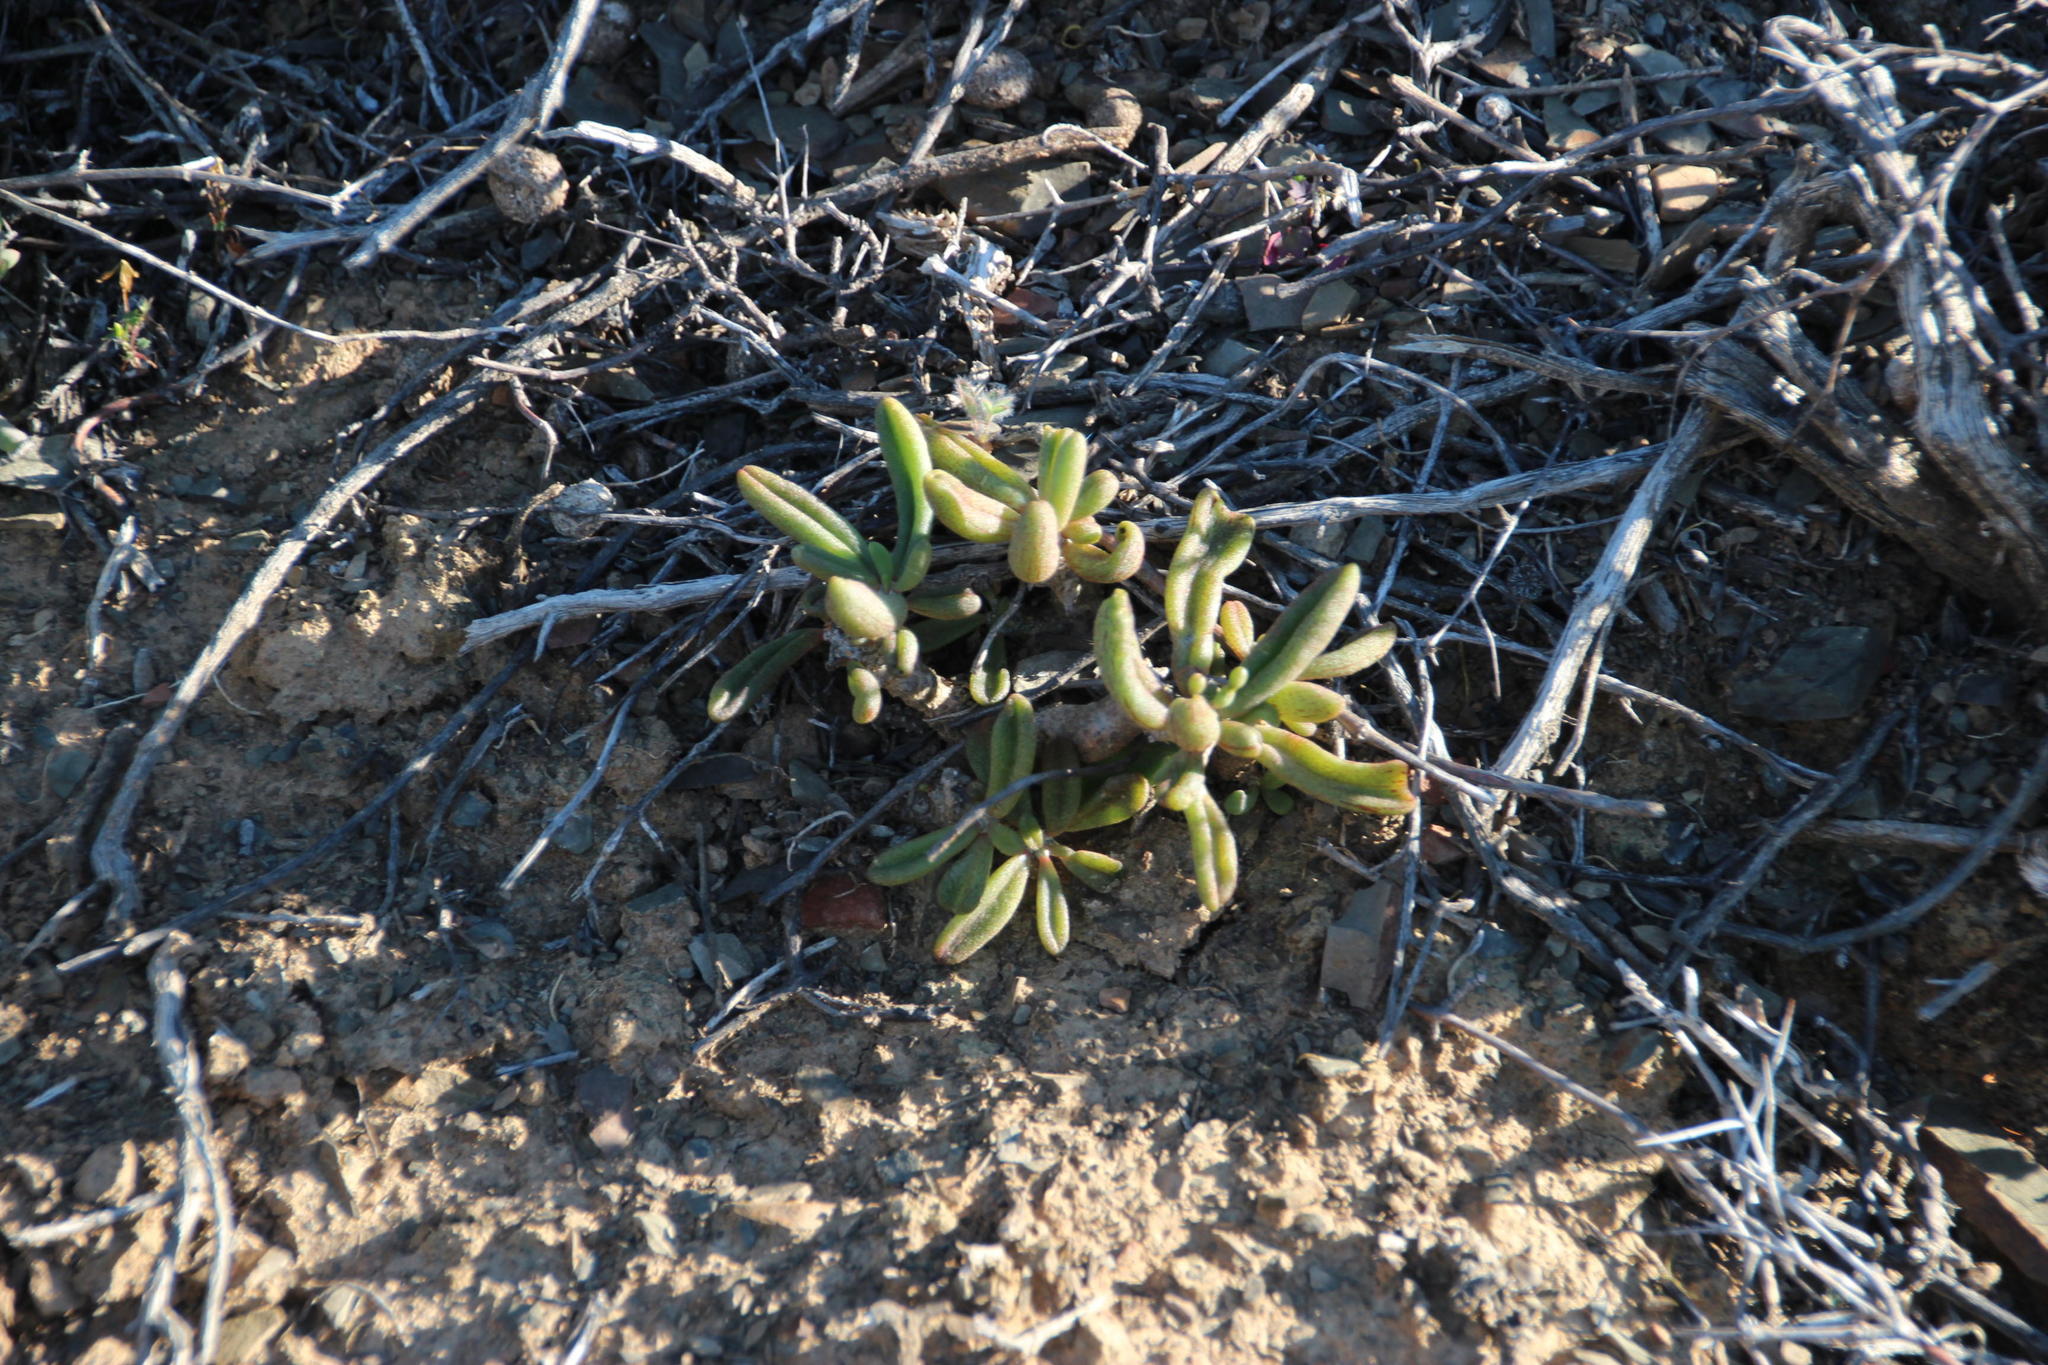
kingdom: Plantae
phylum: Tracheophyta
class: Magnoliopsida
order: Saxifragales
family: Crassulaceae
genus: Tylecodon
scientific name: Tylecodon striatus
